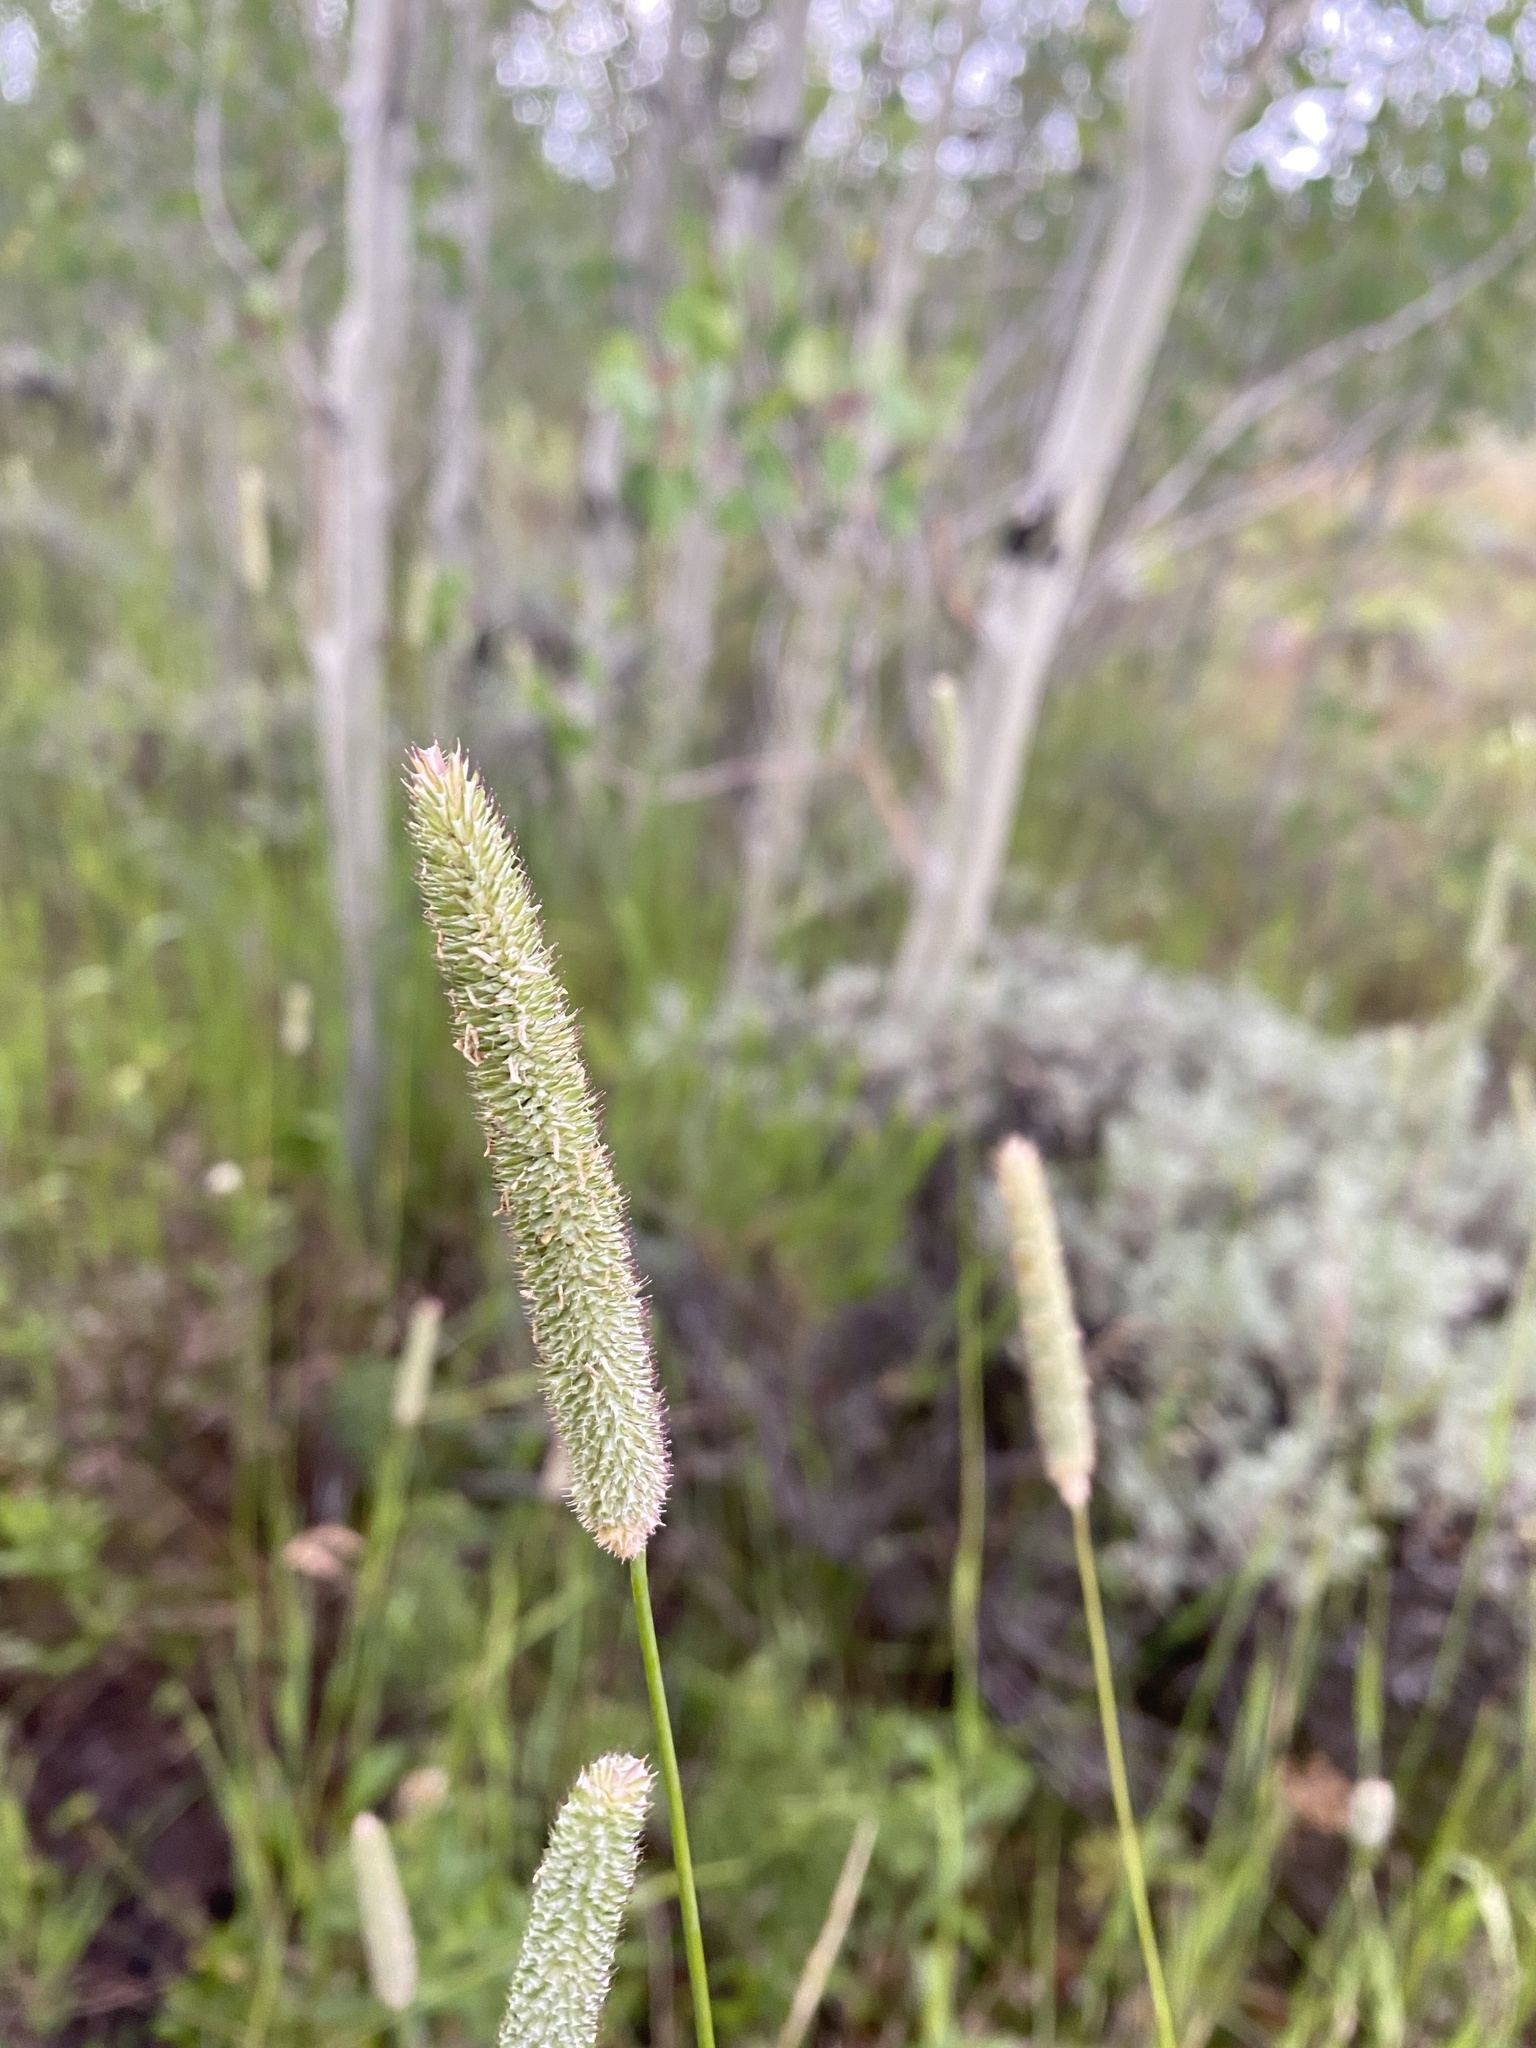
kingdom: Plantae
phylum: Tracheophyta
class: Liliopsida
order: Poales
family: Poaceae
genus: Phleum
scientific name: Phleum pratense
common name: Timothy grass
